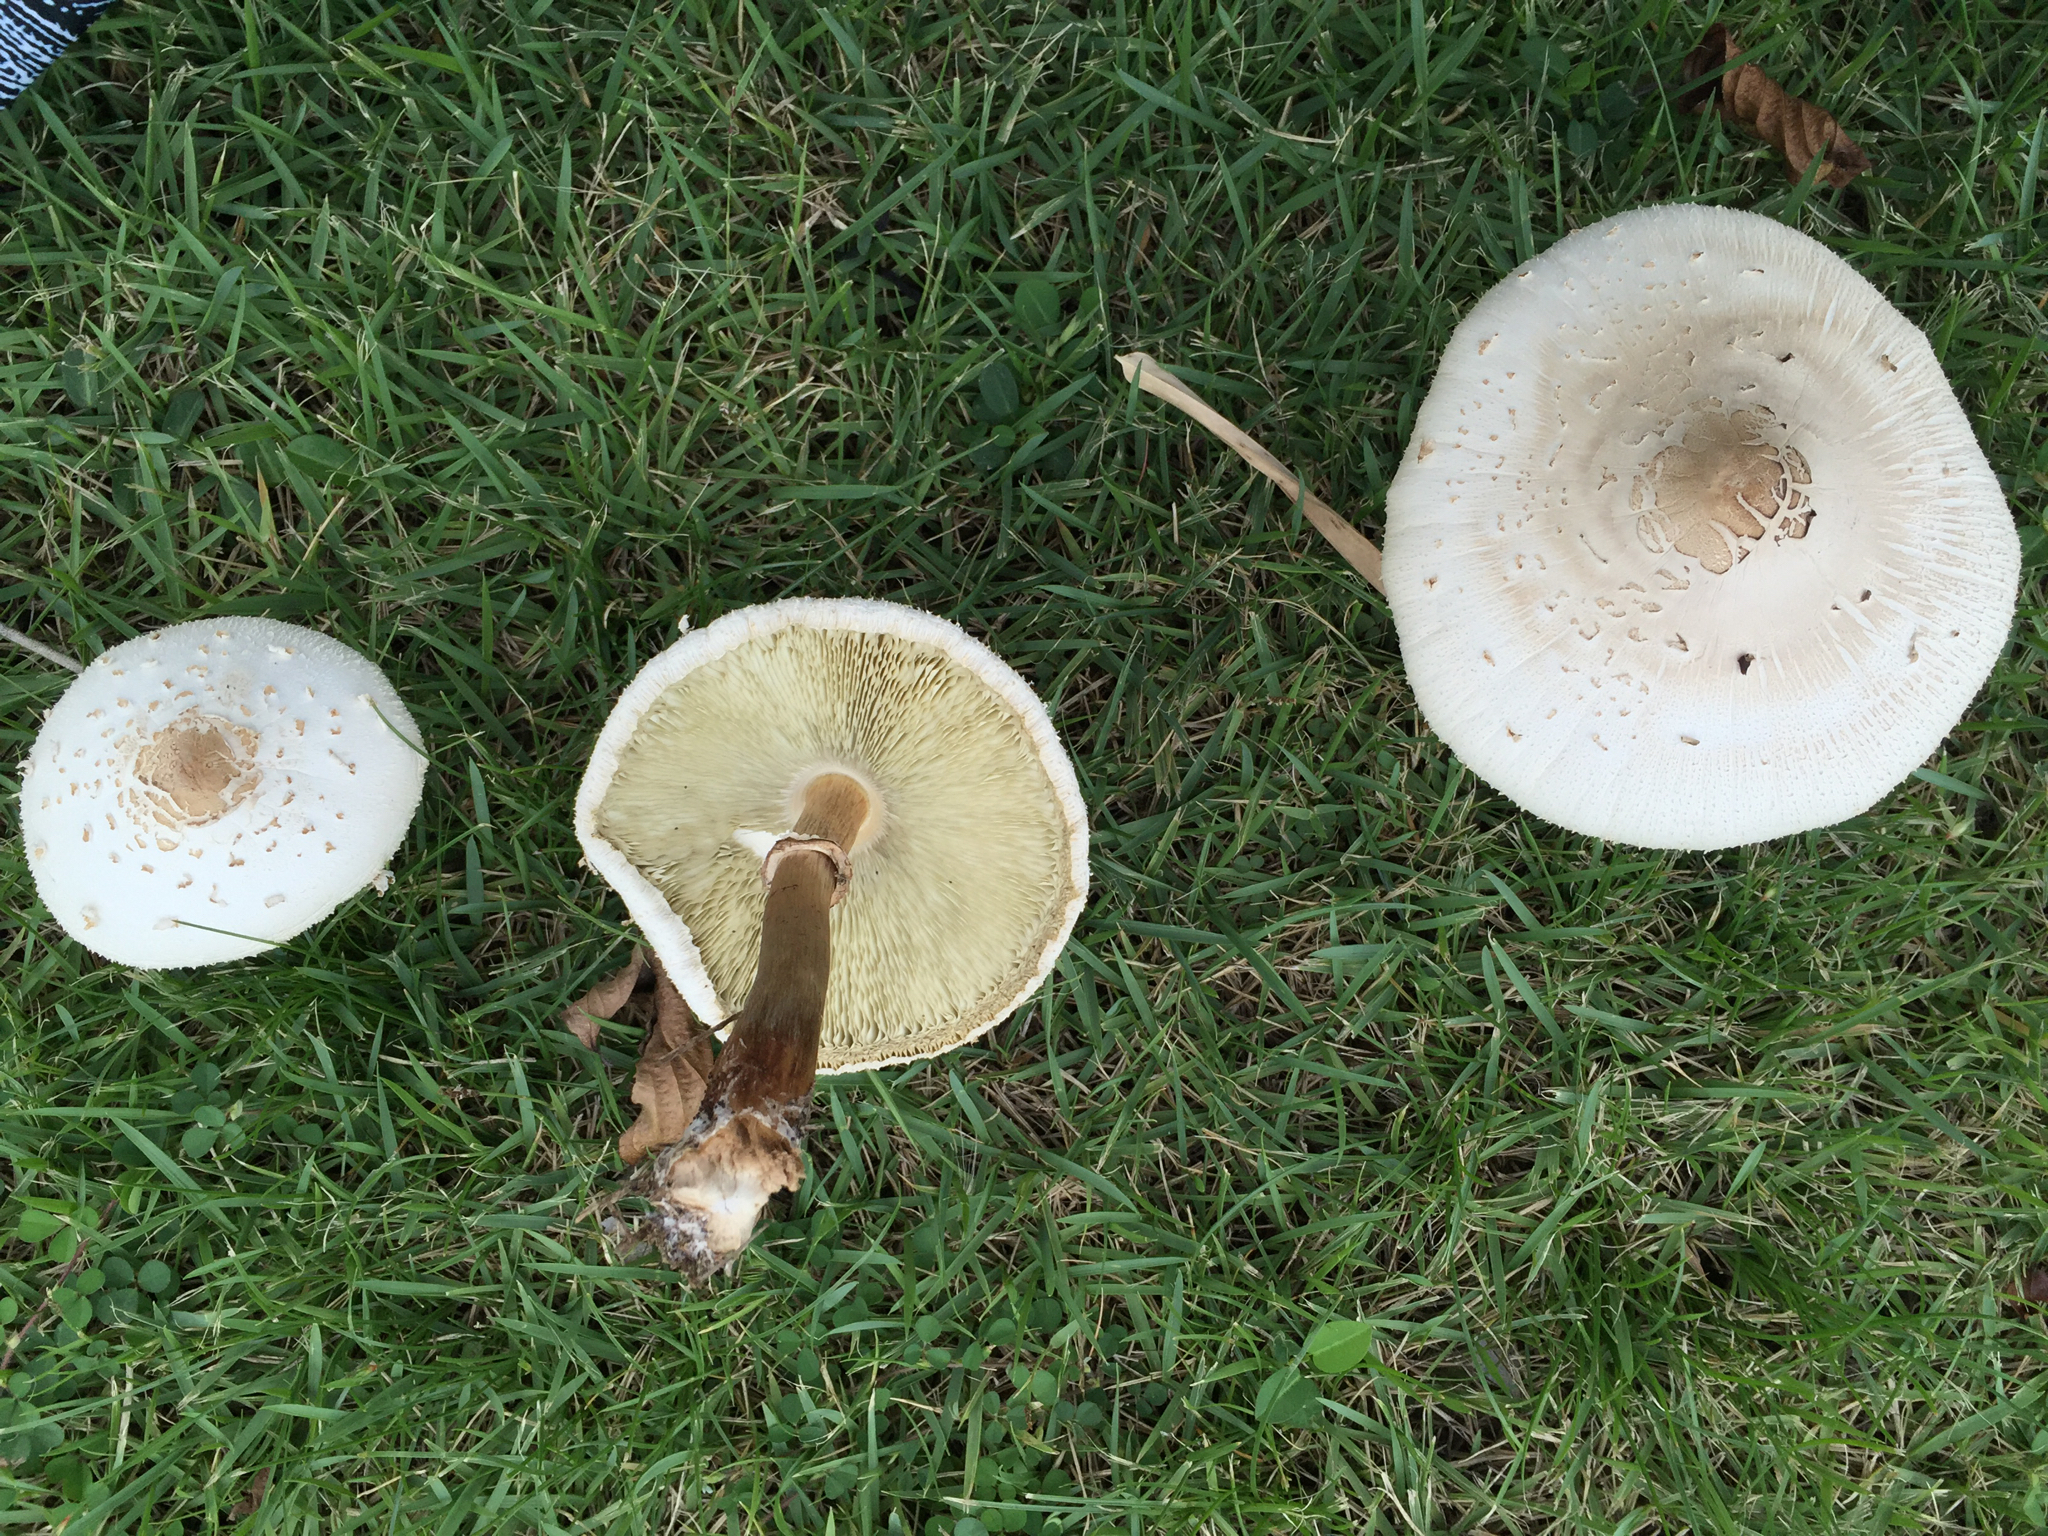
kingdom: Fungi
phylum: Basidiomycota
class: Agaricomycetes
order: Agaricales
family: Agaricaceae
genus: Chlorophyllum
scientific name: Chlorophyllum molybdites
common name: False parasol
